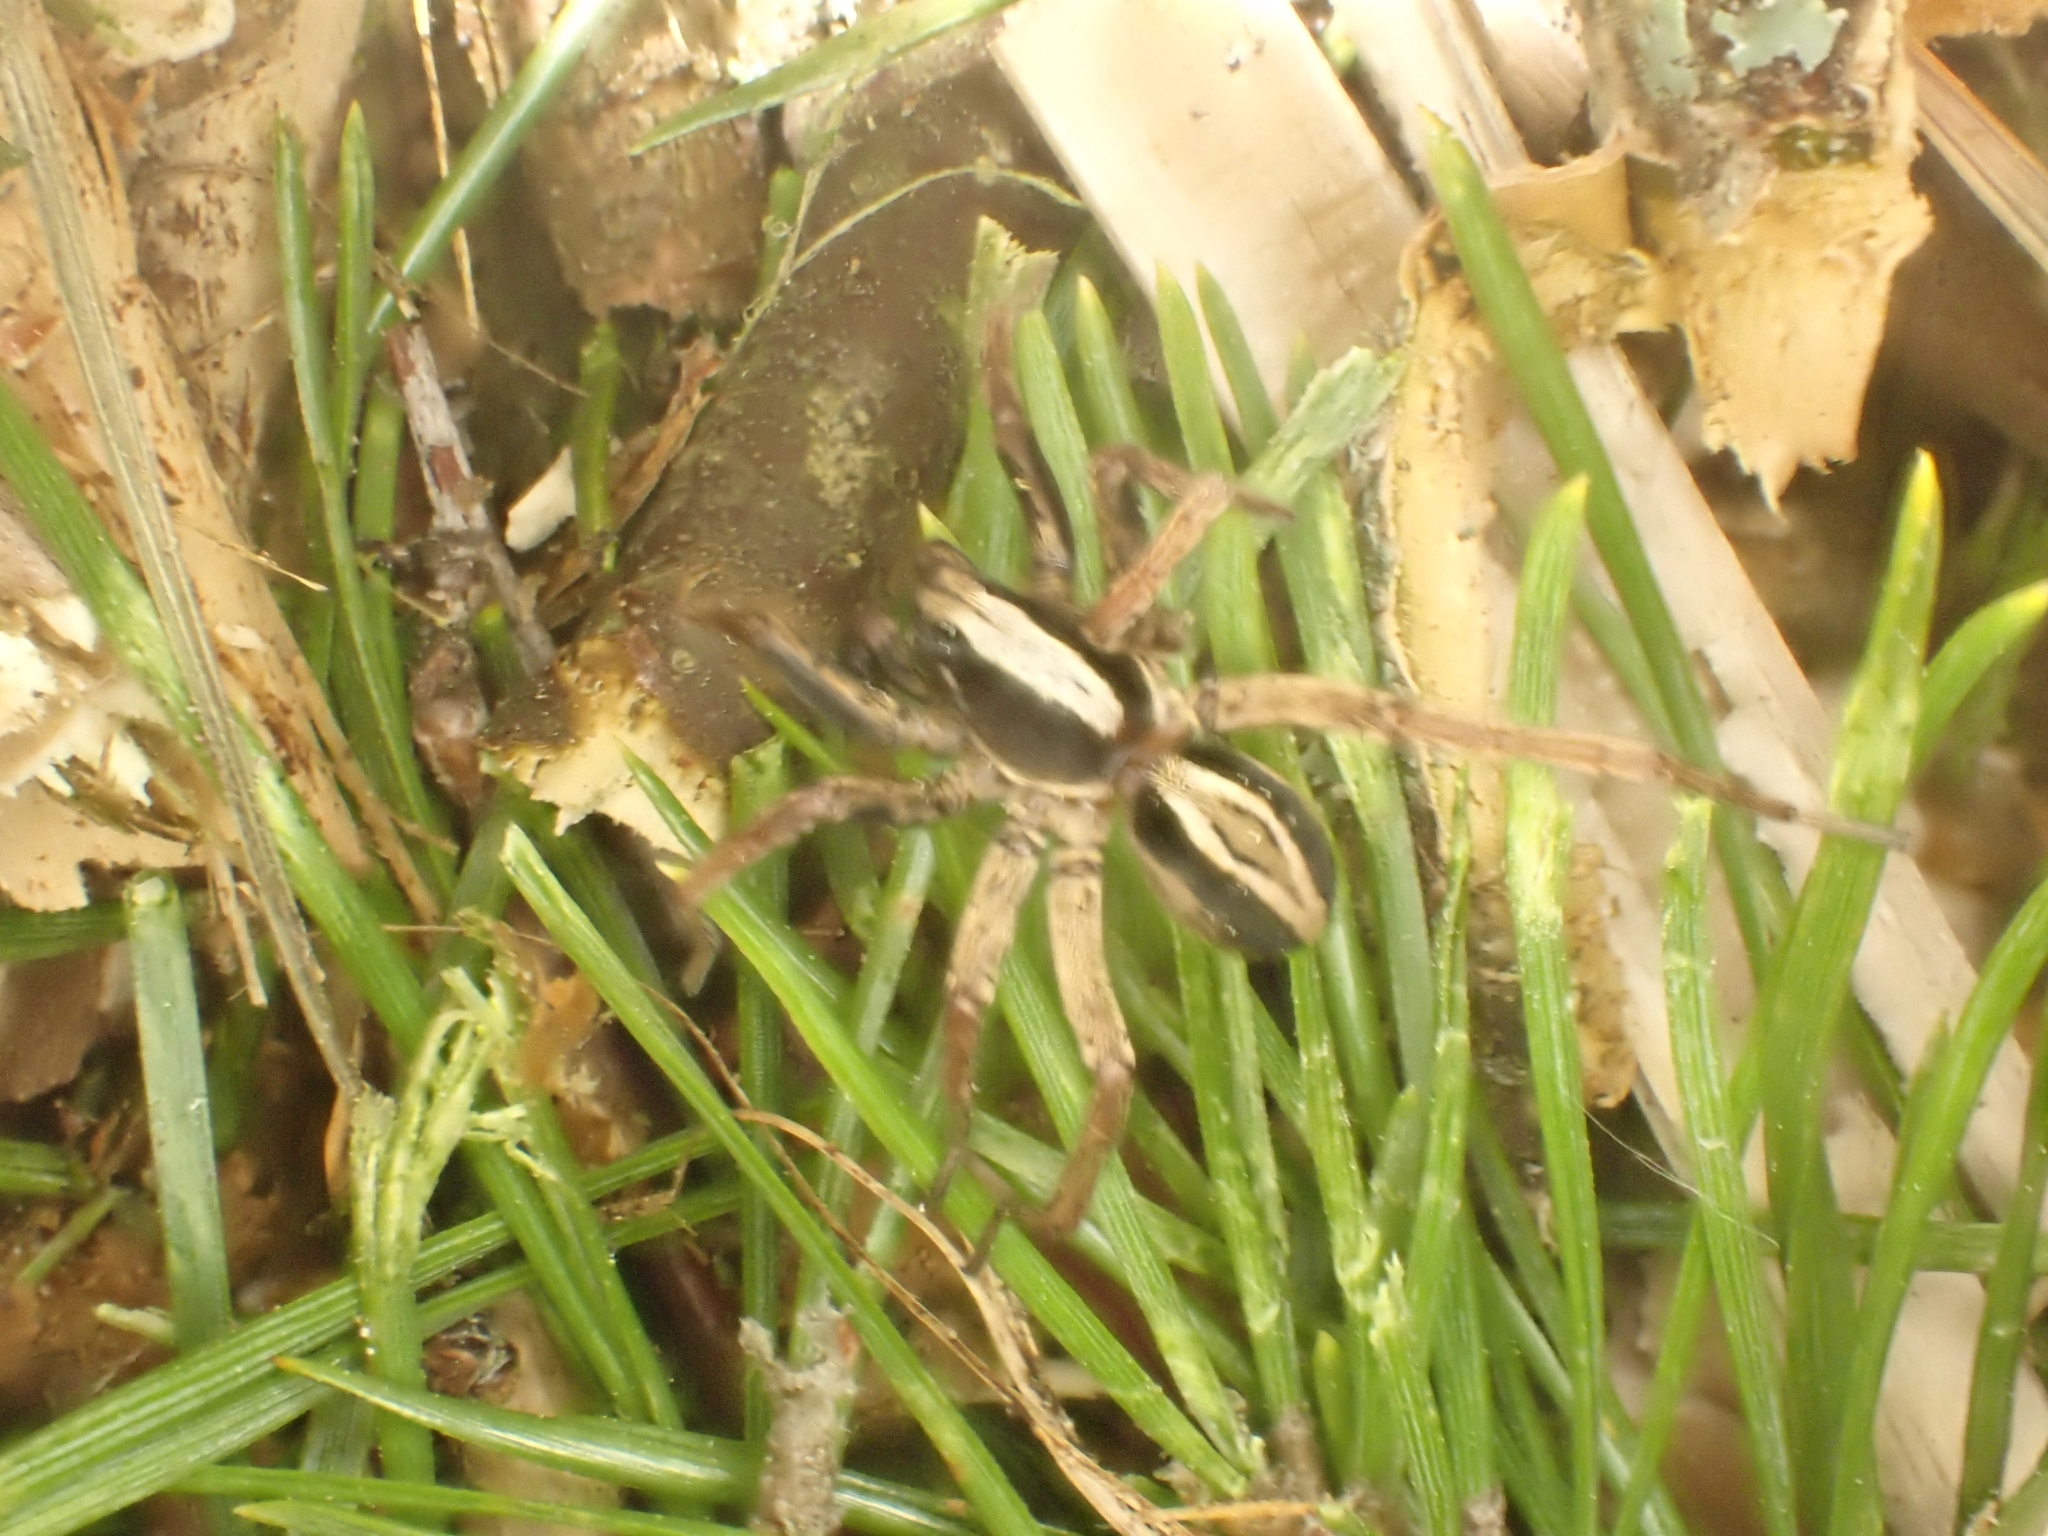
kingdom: Animalia
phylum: Arthropoda
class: Arachnida
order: Araneae
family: Lycosidae
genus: Alopecosa
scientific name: Alopecosa pulverulenta
